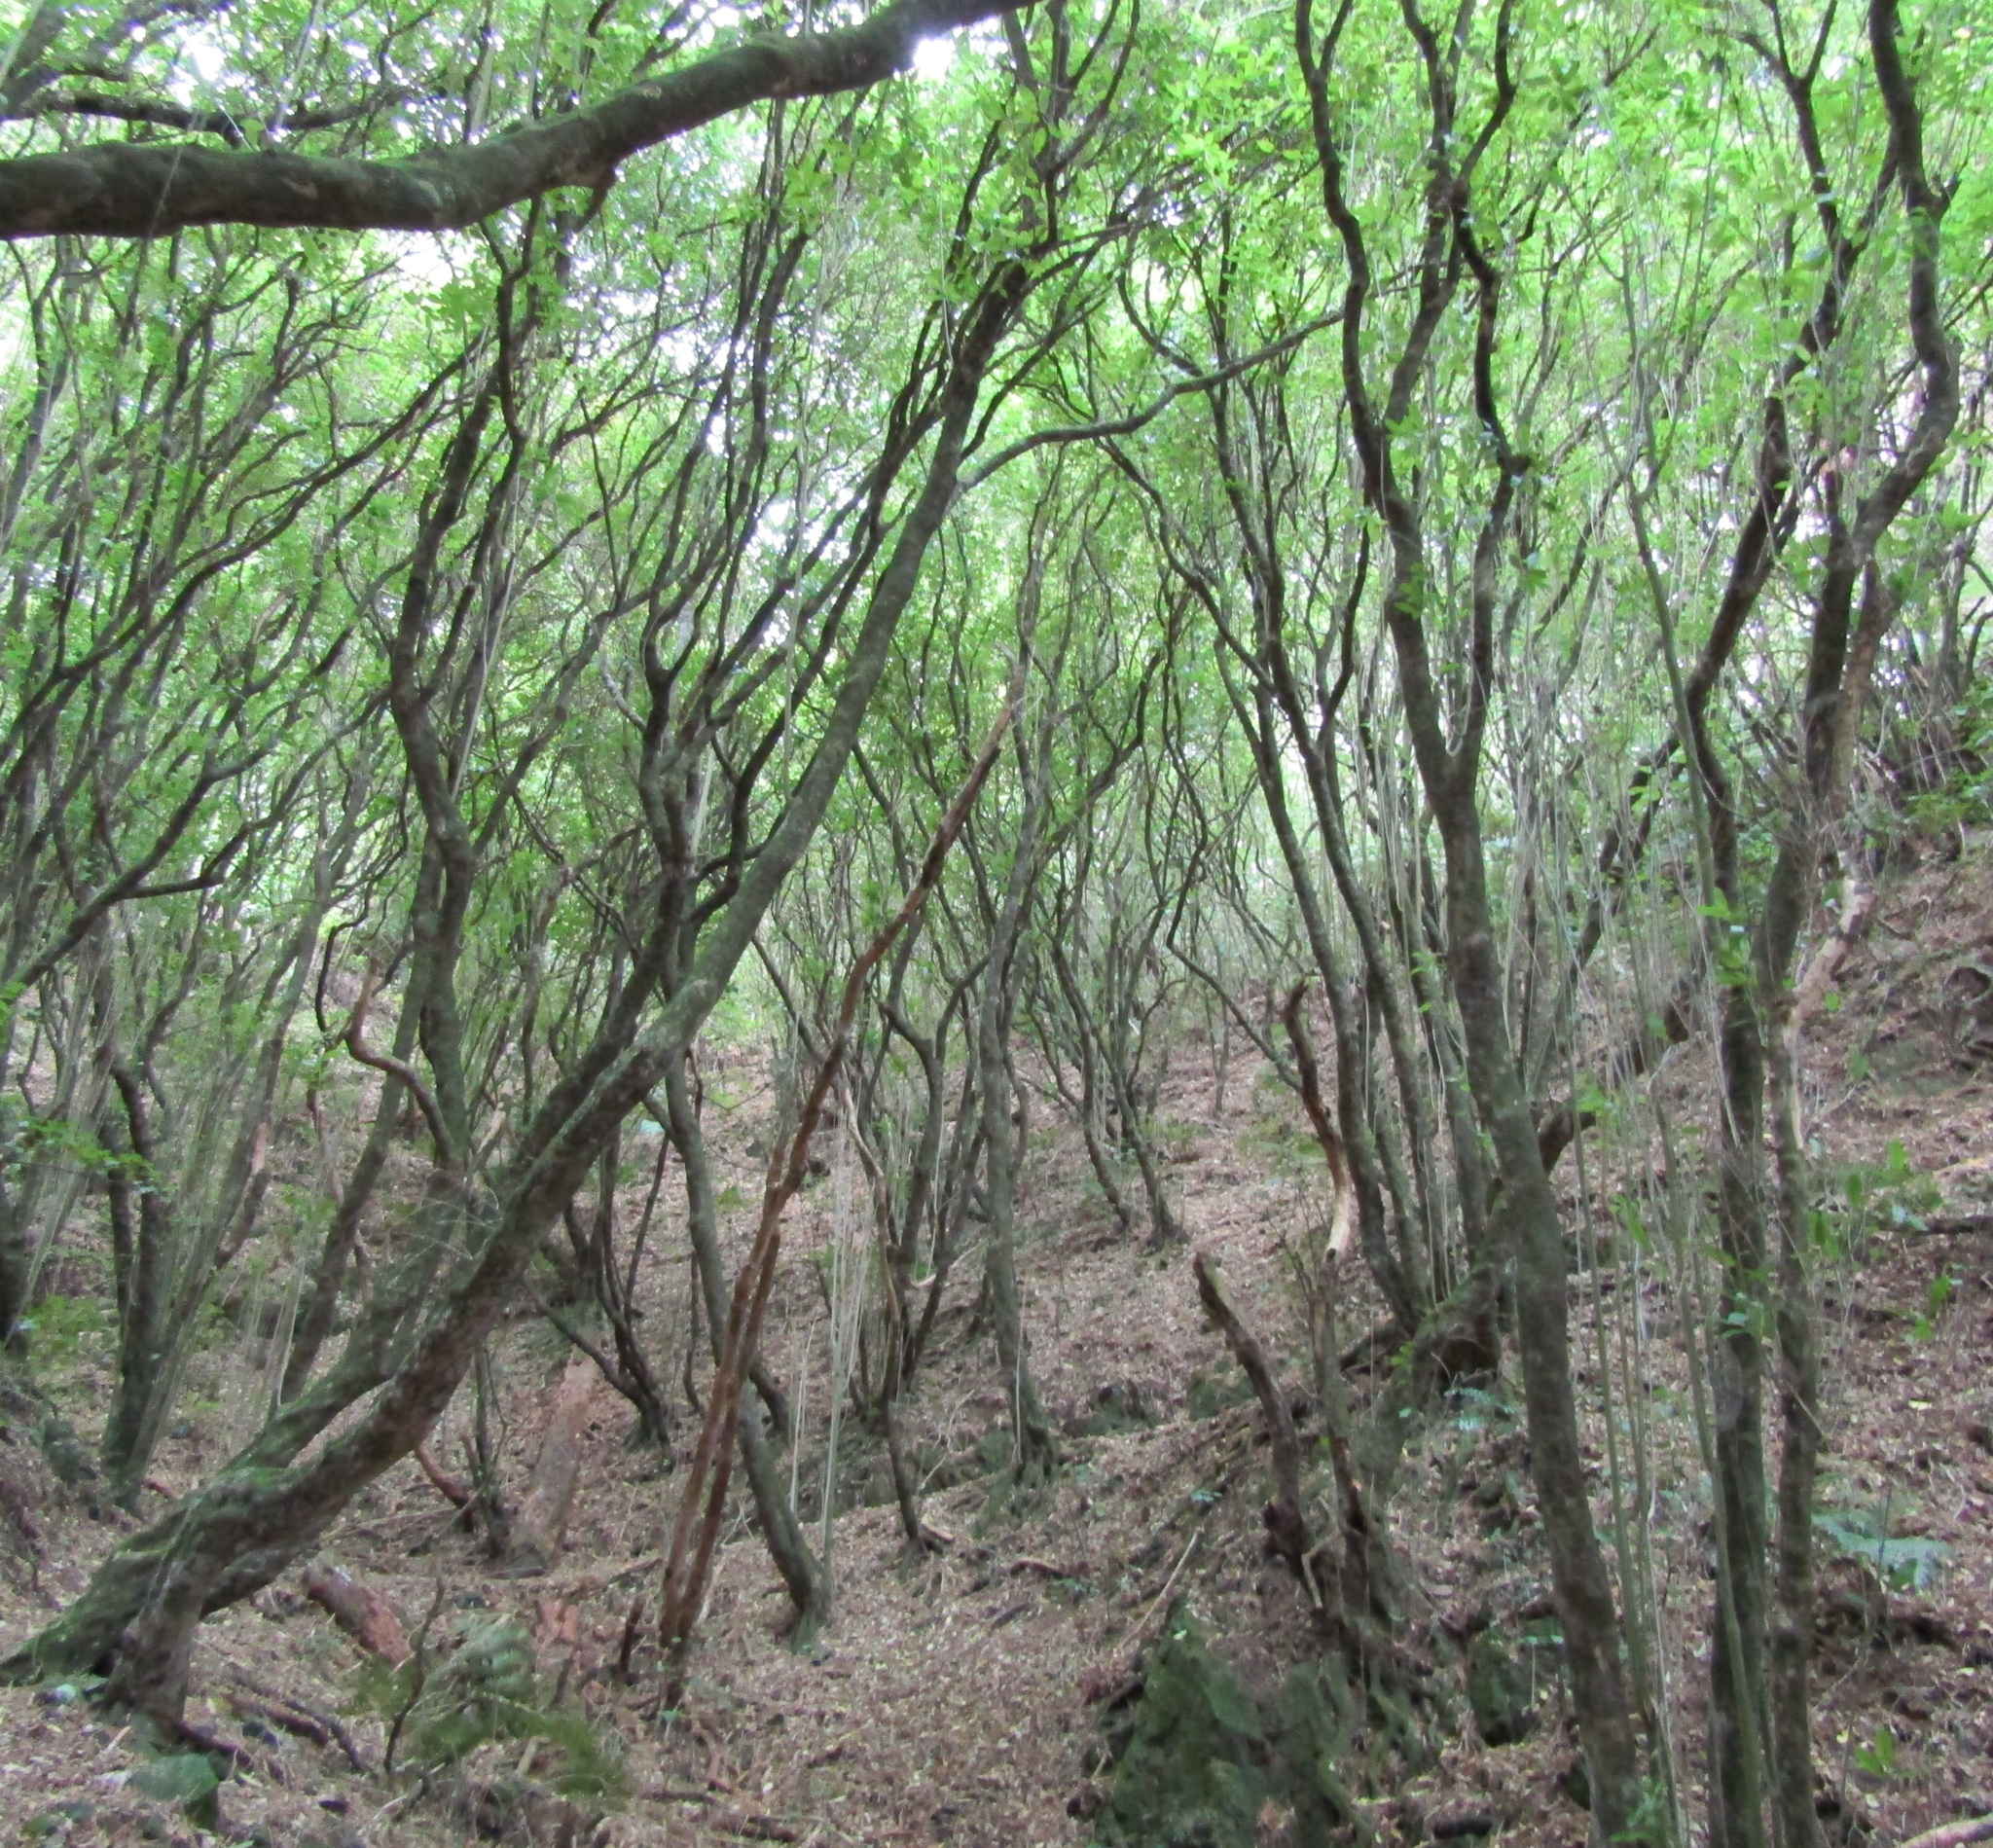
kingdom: Plantae
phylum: Tracheophyta
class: Magnoliopsida
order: Malpighiales
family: Violaceae
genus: Melicytus
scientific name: Melicytus ramiflorus
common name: Mahoe
